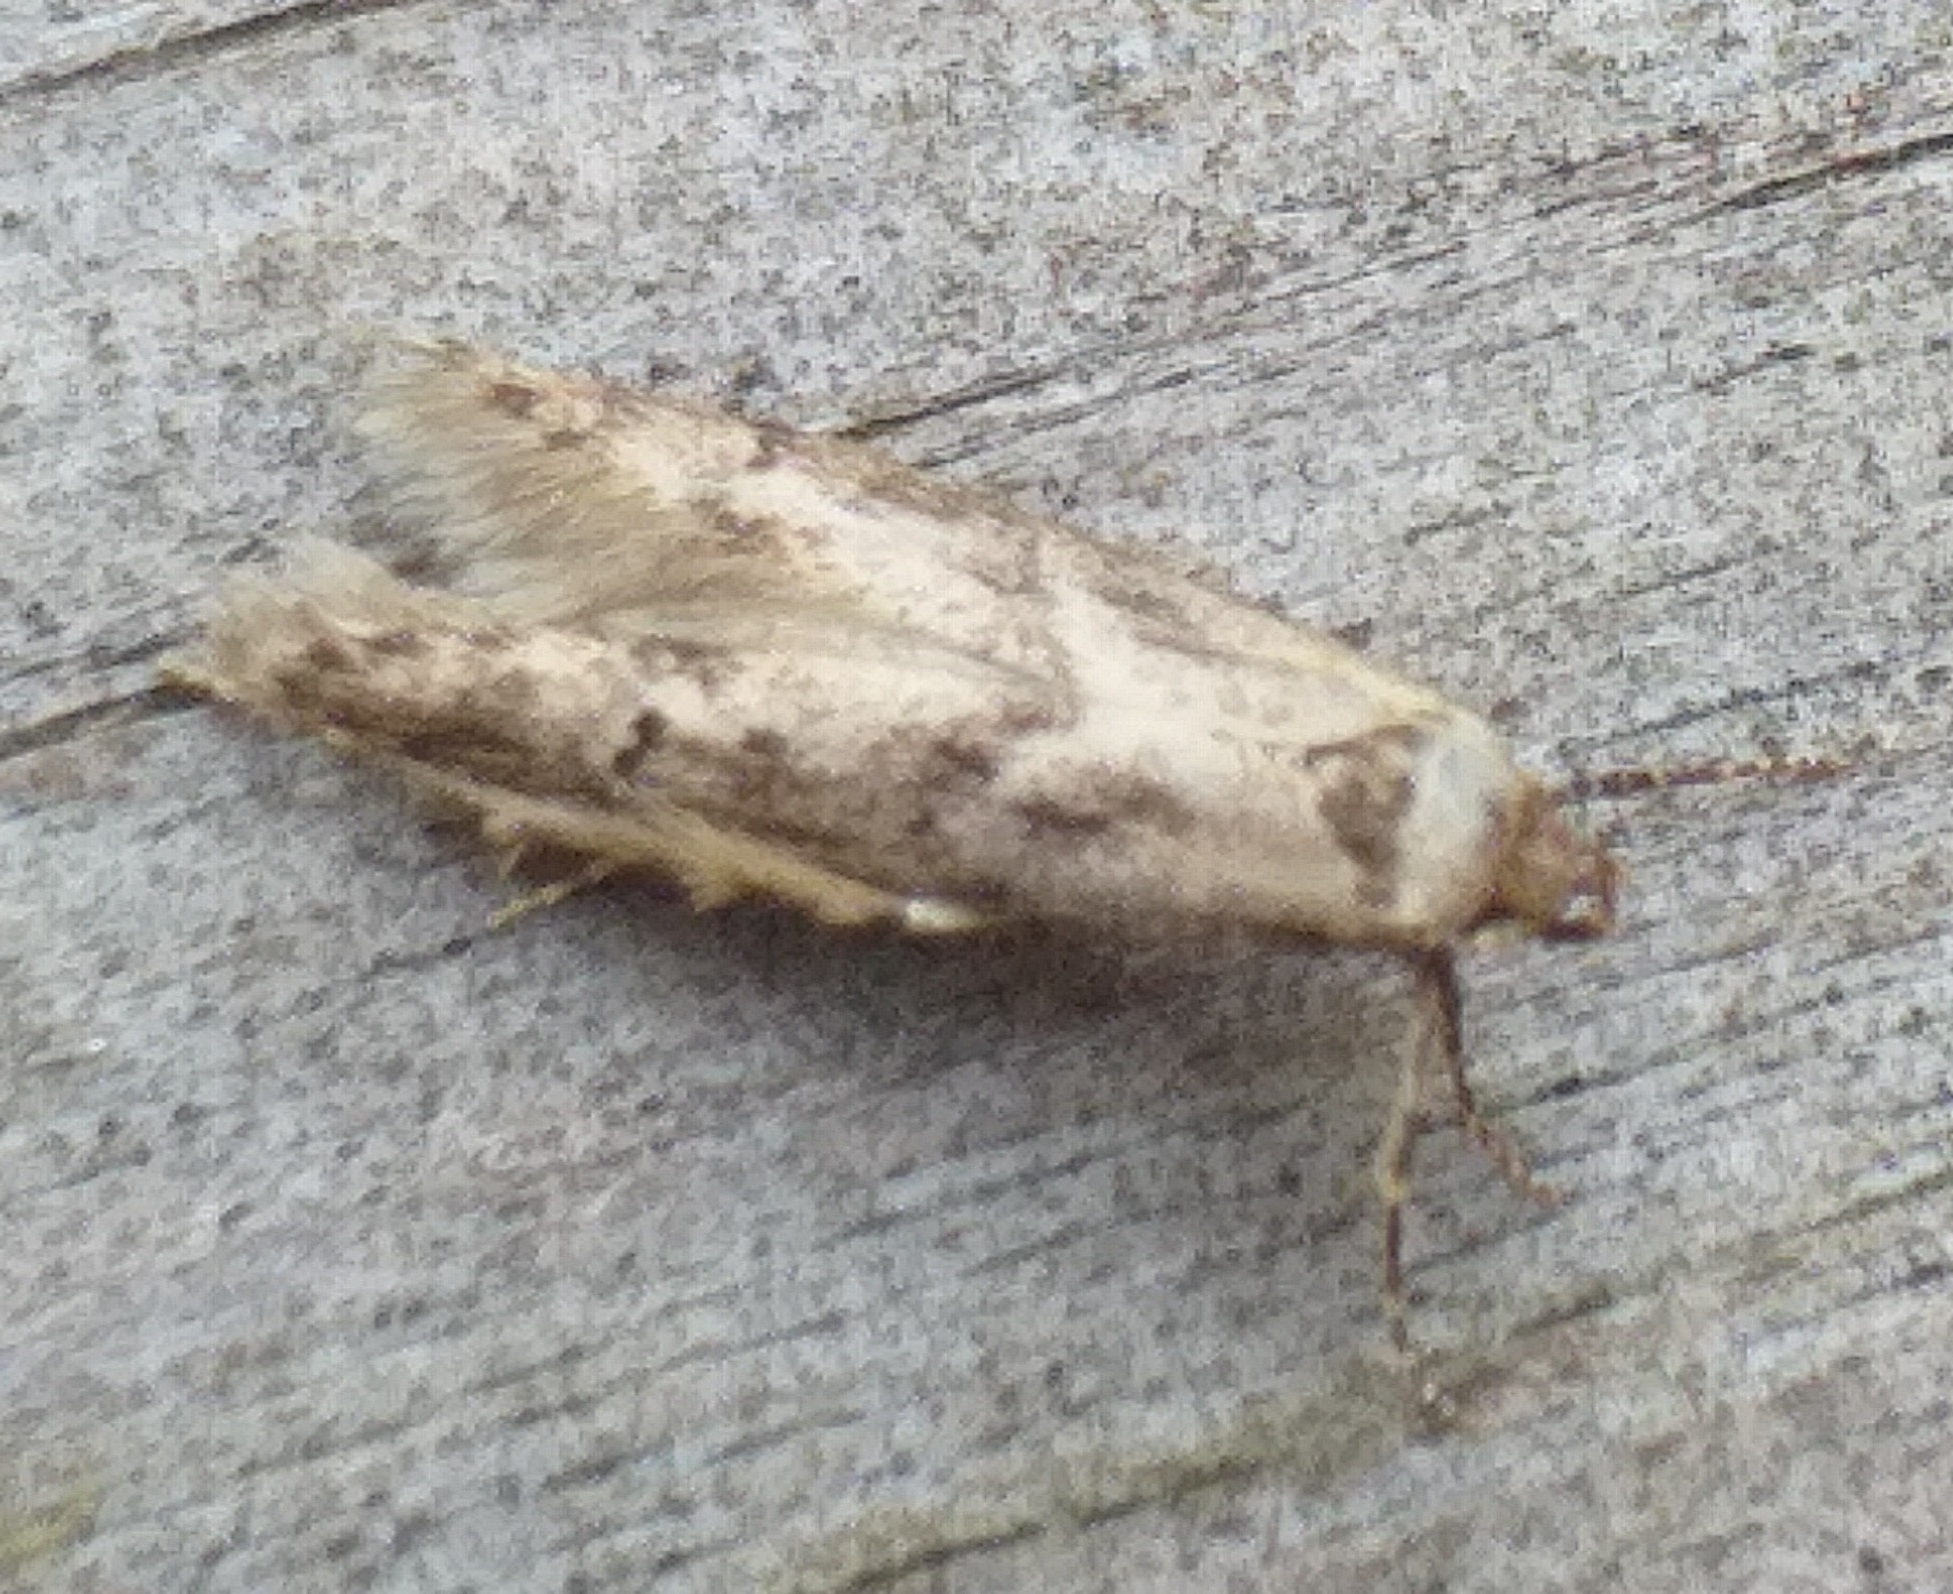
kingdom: Animalia
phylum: Arthropoda
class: Insecta
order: Lepidoptera
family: Blastobasidae
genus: Blastobasis
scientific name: Blastobasis adustella
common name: Dingy dowd
